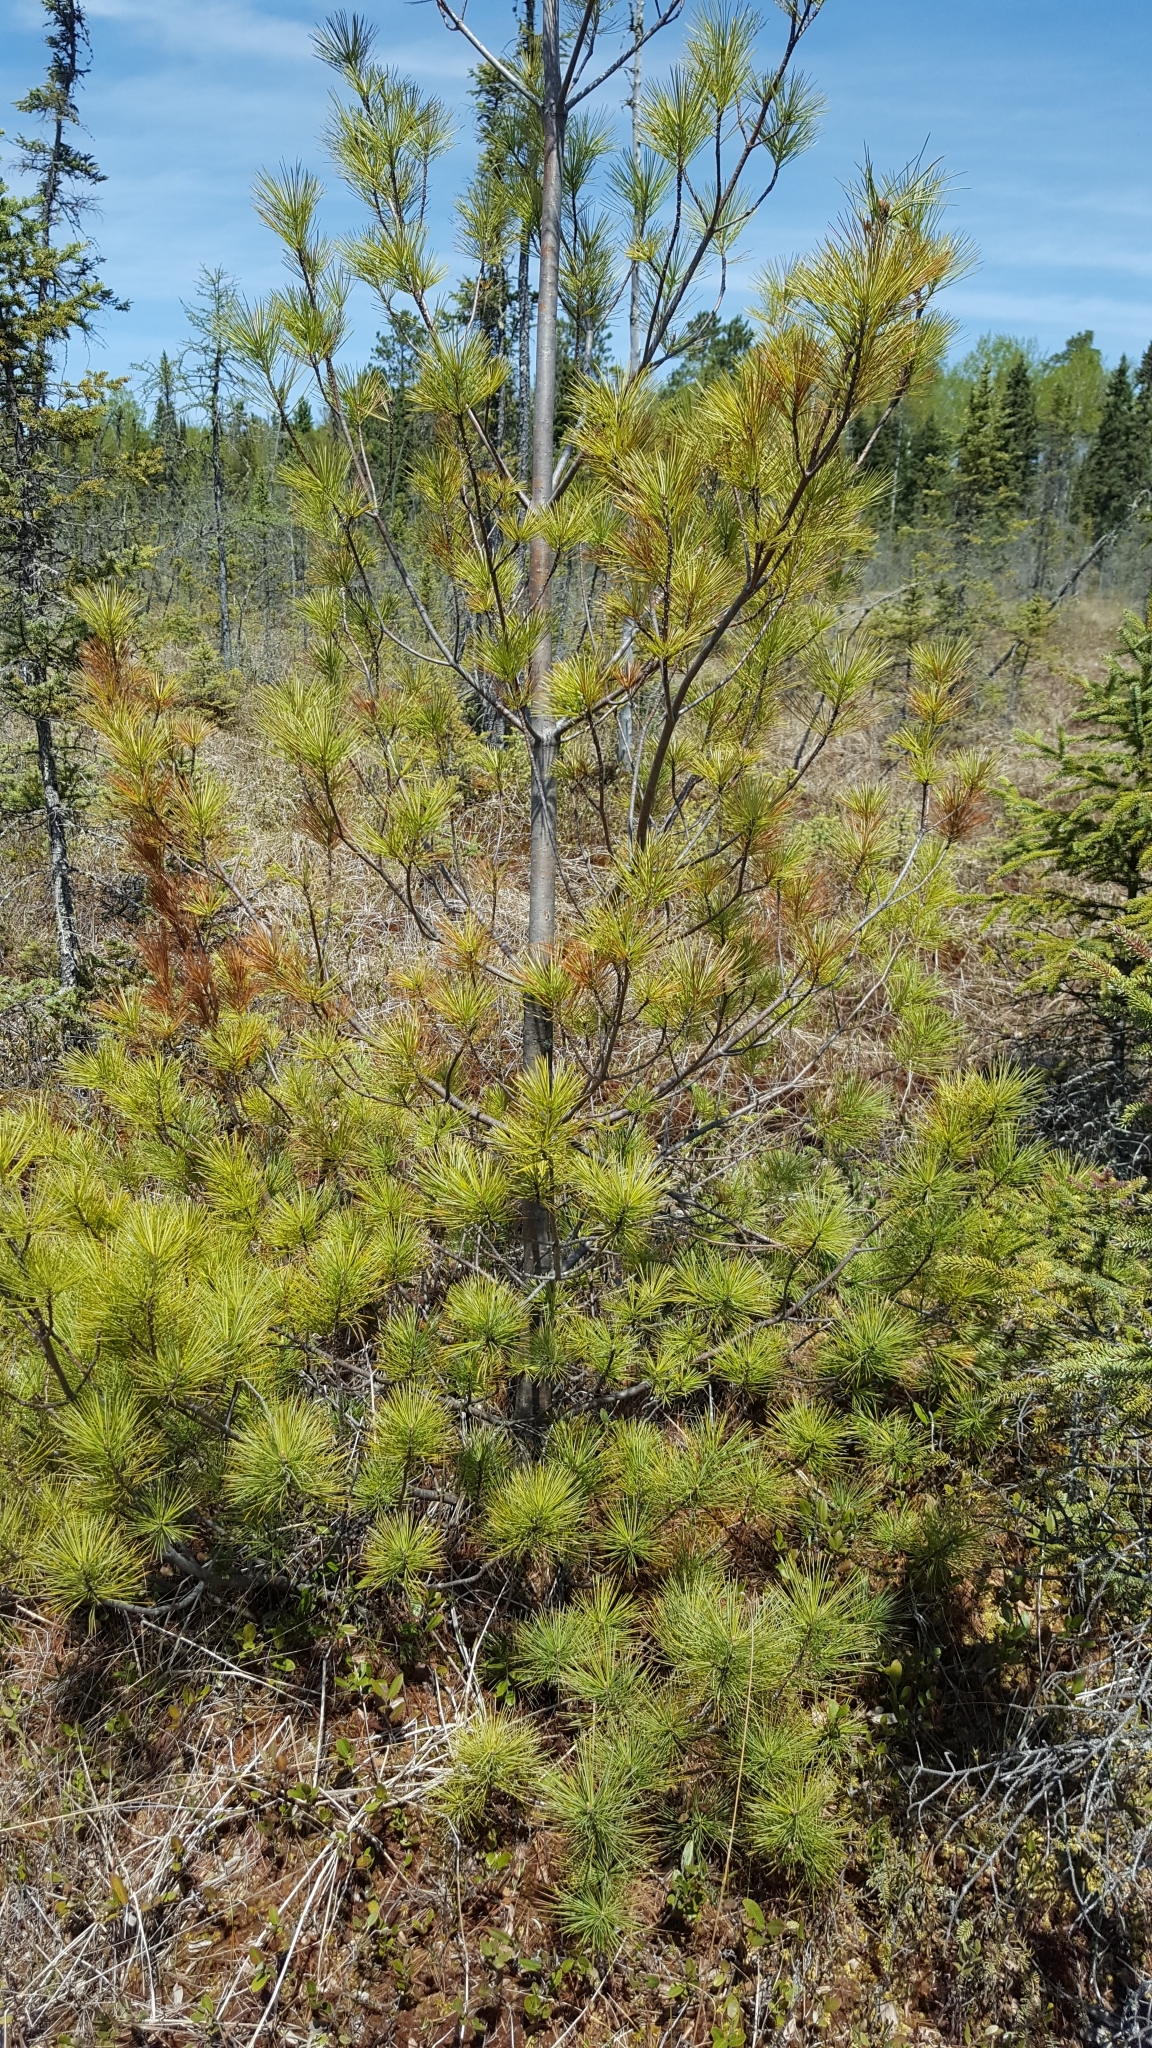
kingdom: Plantae
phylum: Tracheophyta
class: Pinopsida
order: Pinales
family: Pinaceae
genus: Pinus
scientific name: Pinus strobus
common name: Weymouth pine
